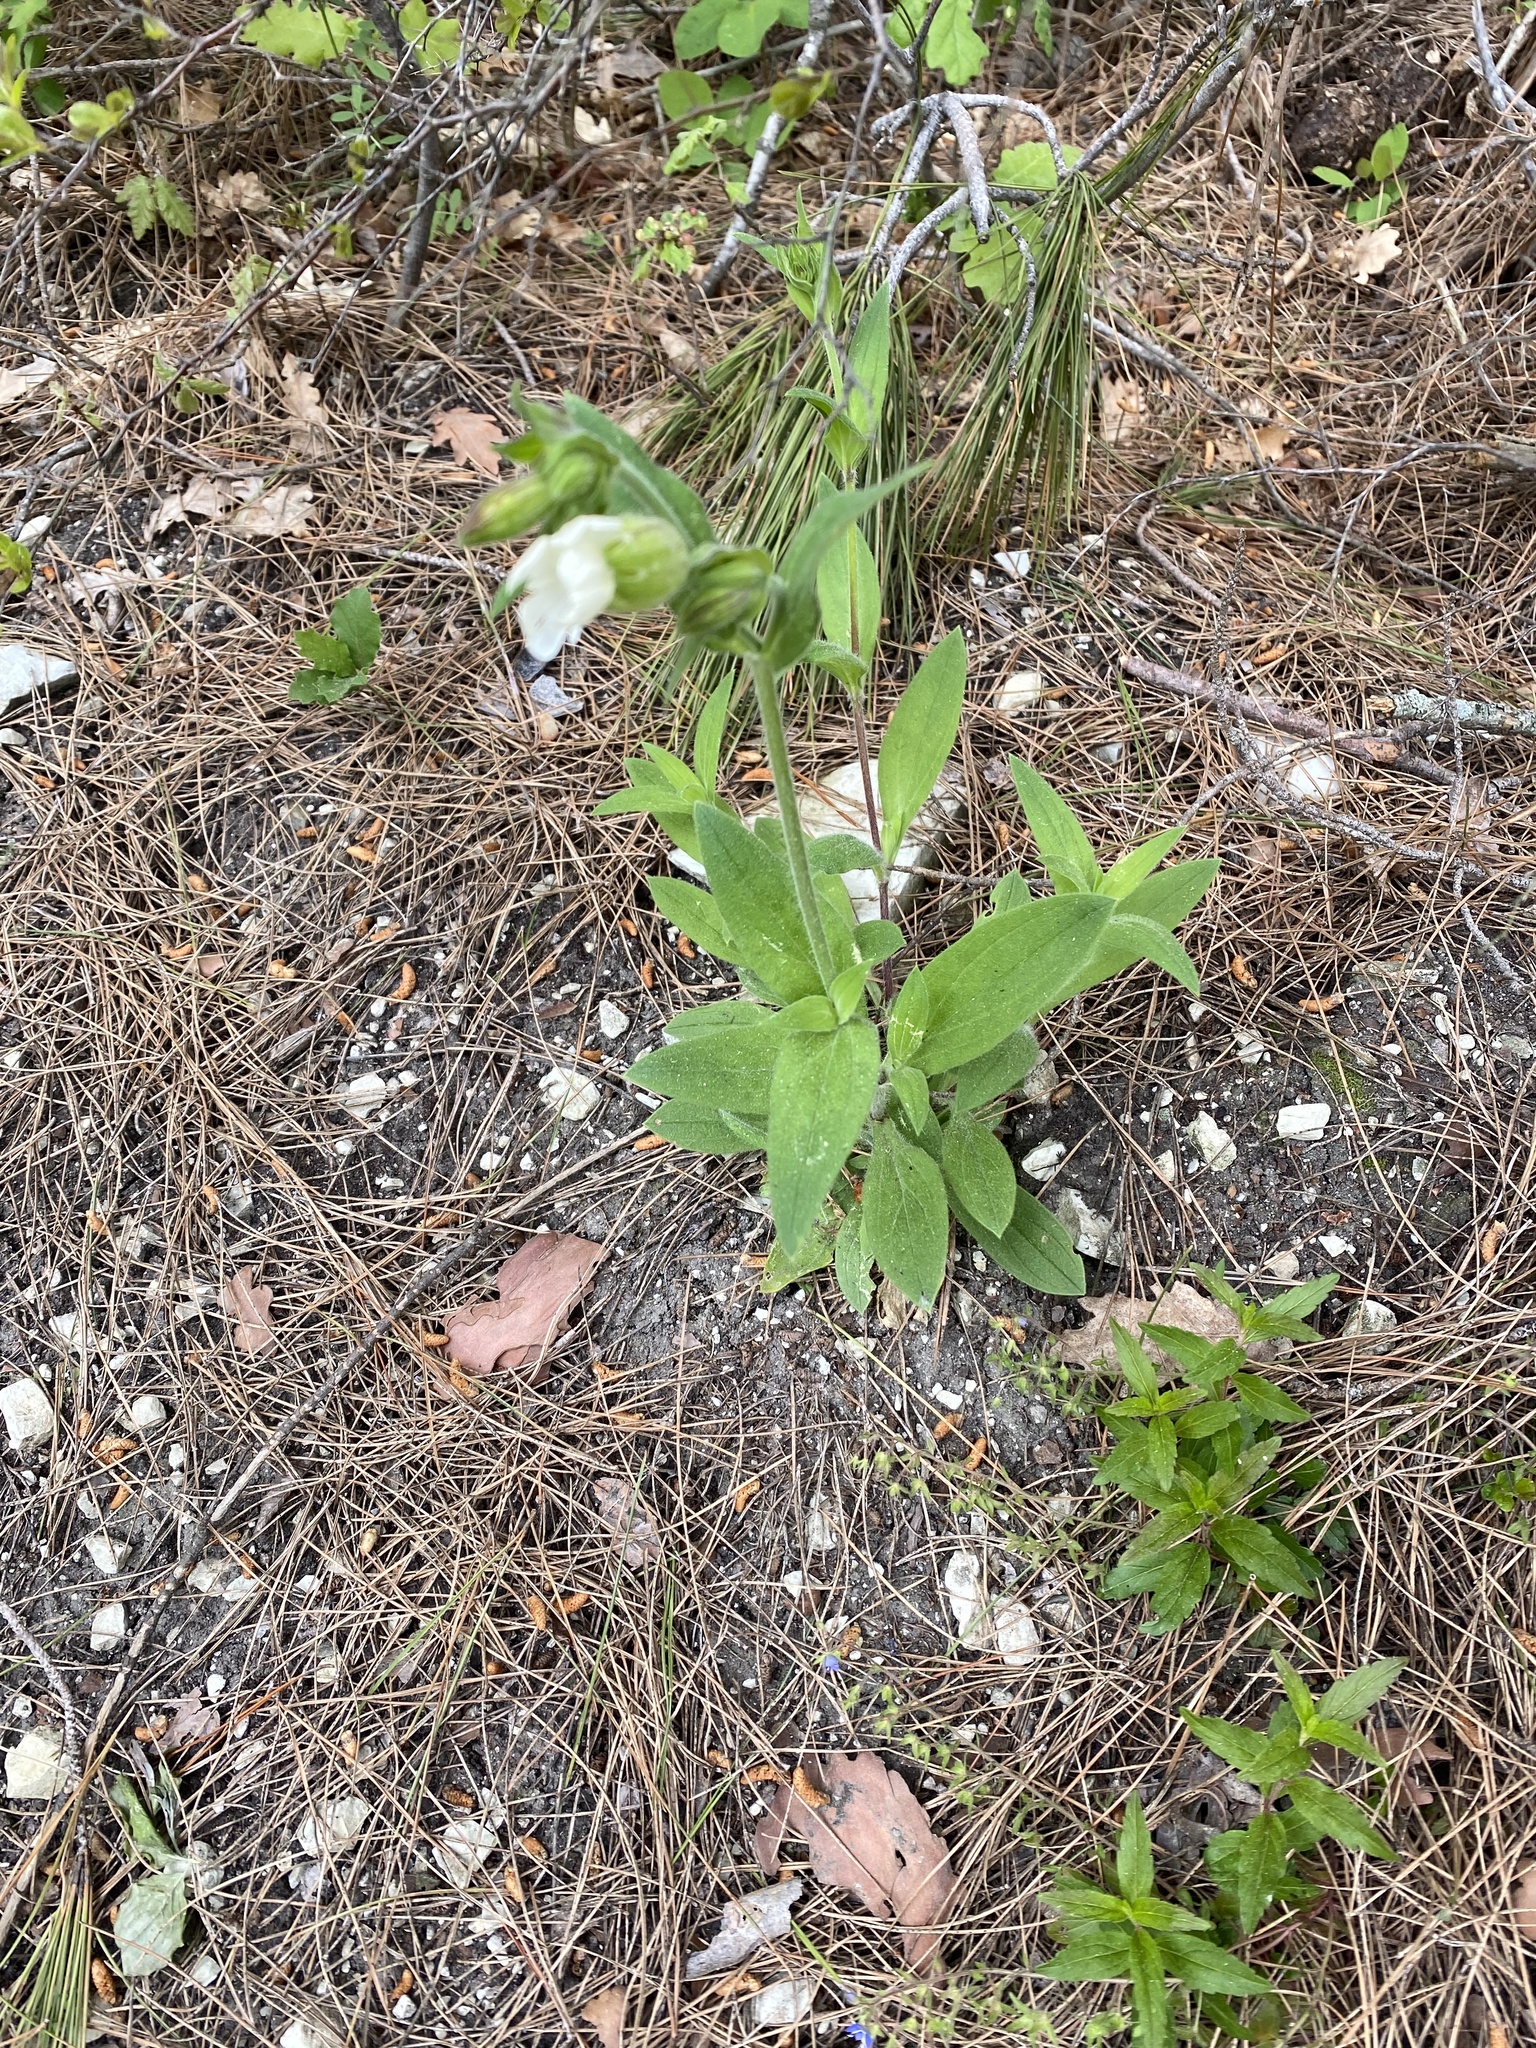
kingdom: Plantae
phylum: Tracheophyta
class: Magnoliopsida
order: Caryophyllales
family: Caryophyllaceae
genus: Silene
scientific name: Silene latifolia
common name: White campion
